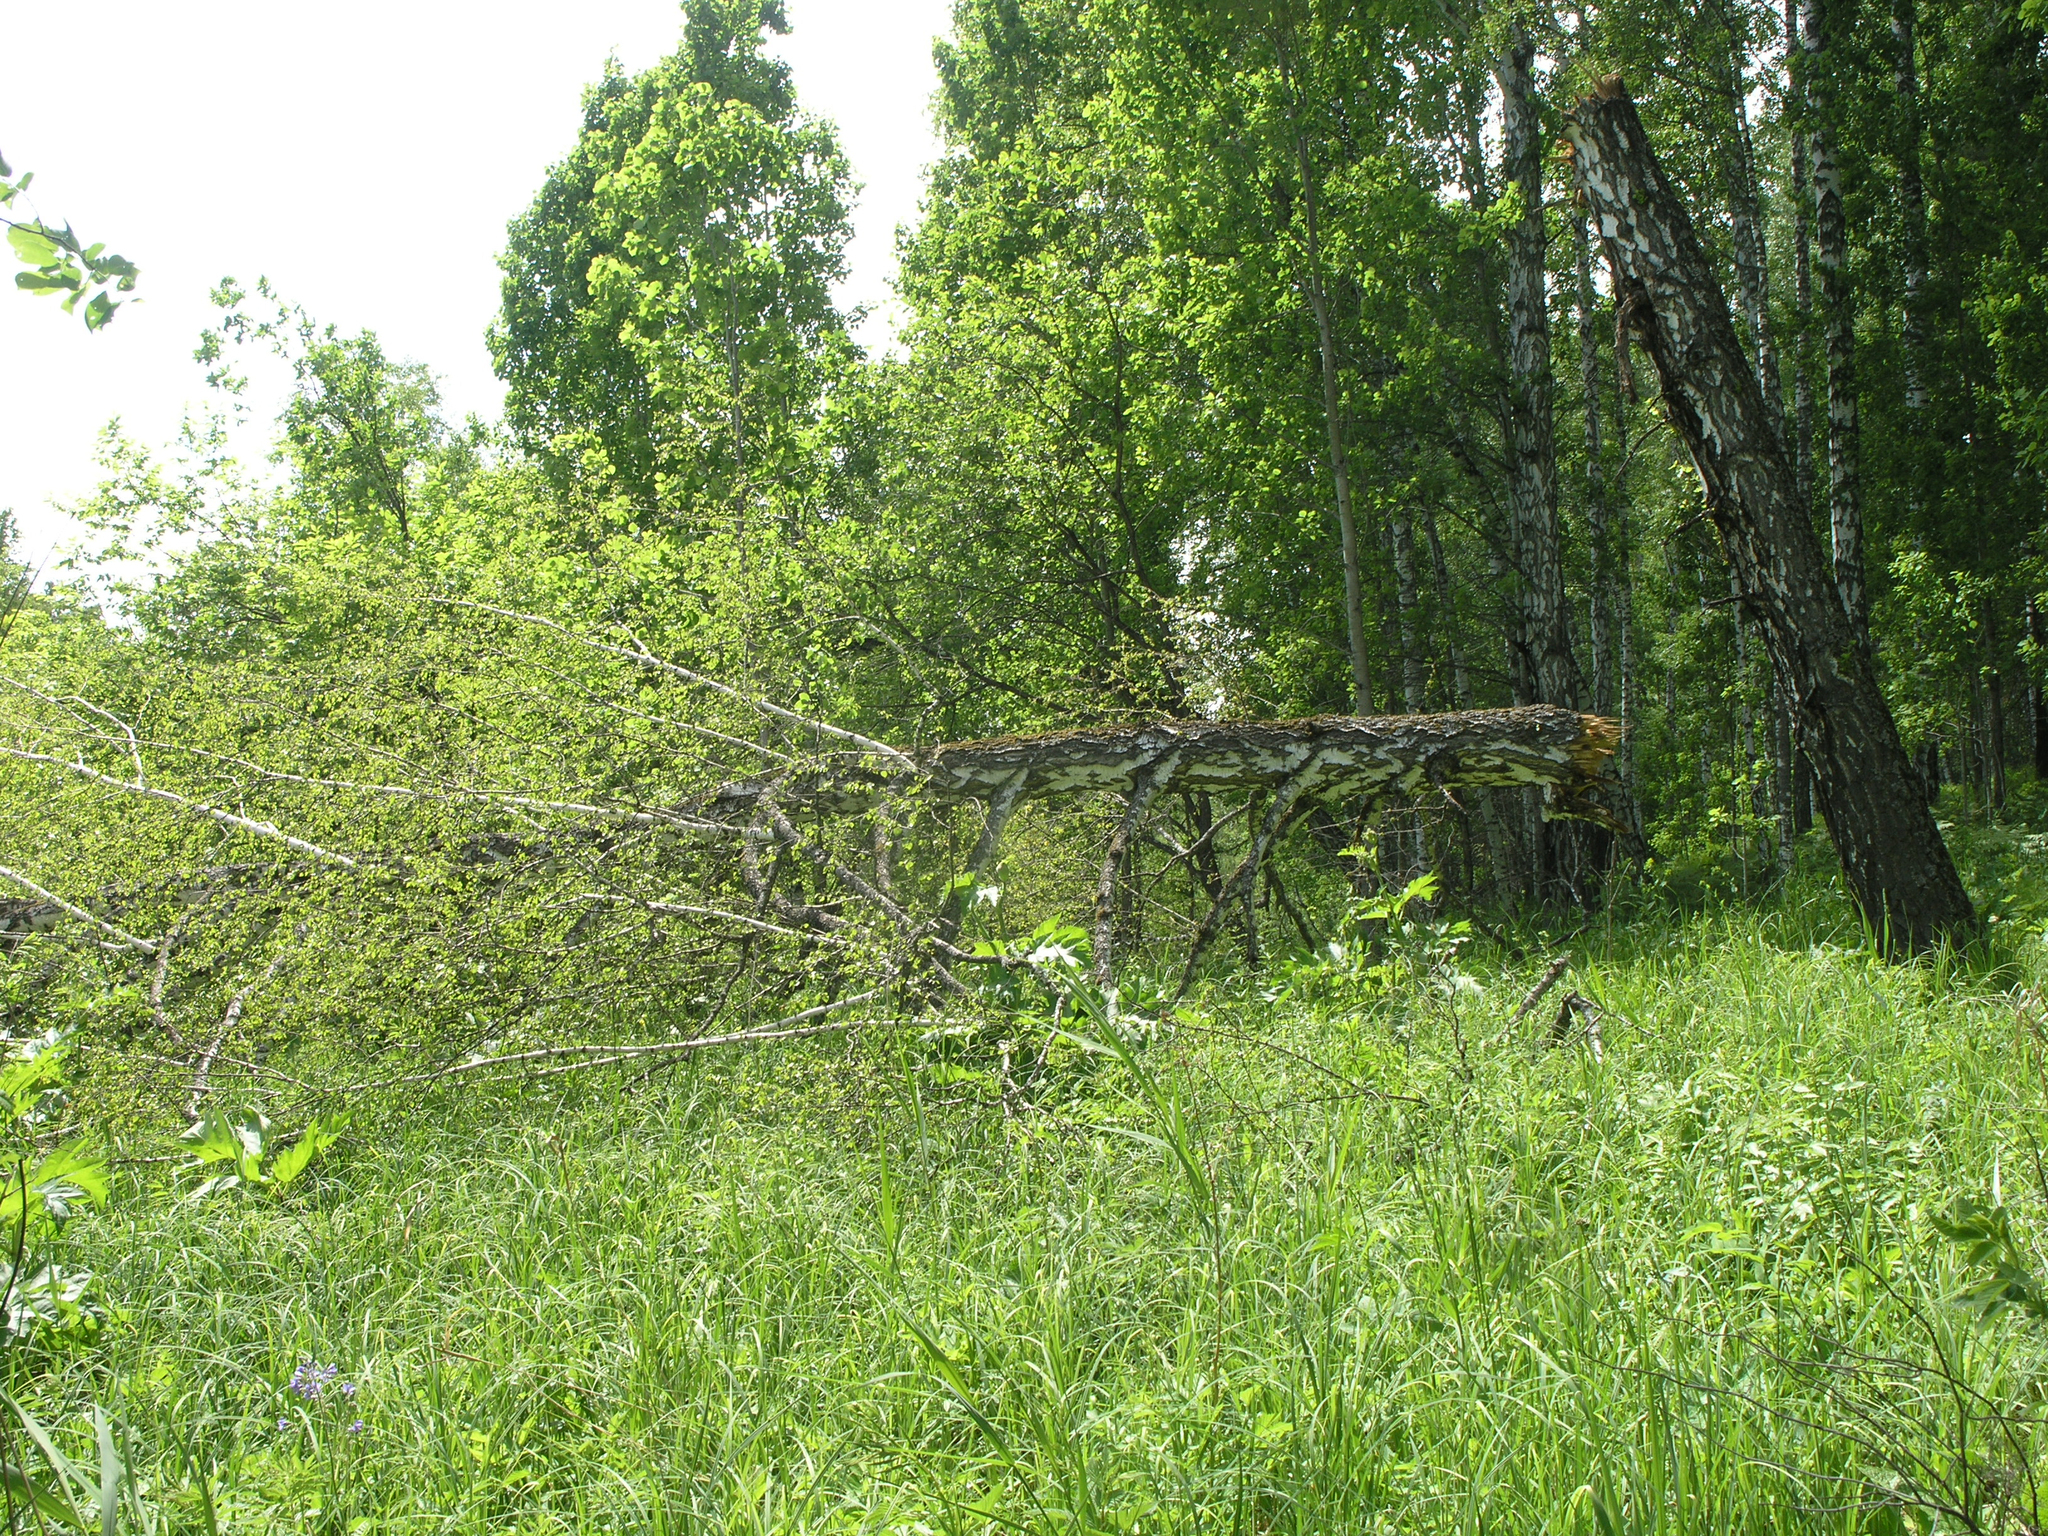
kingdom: Plantae
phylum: Tracheophyta
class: Magnoliopsida
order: Fagales
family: Betulaceae
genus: Betula
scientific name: Betula pendula
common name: Silver birch
